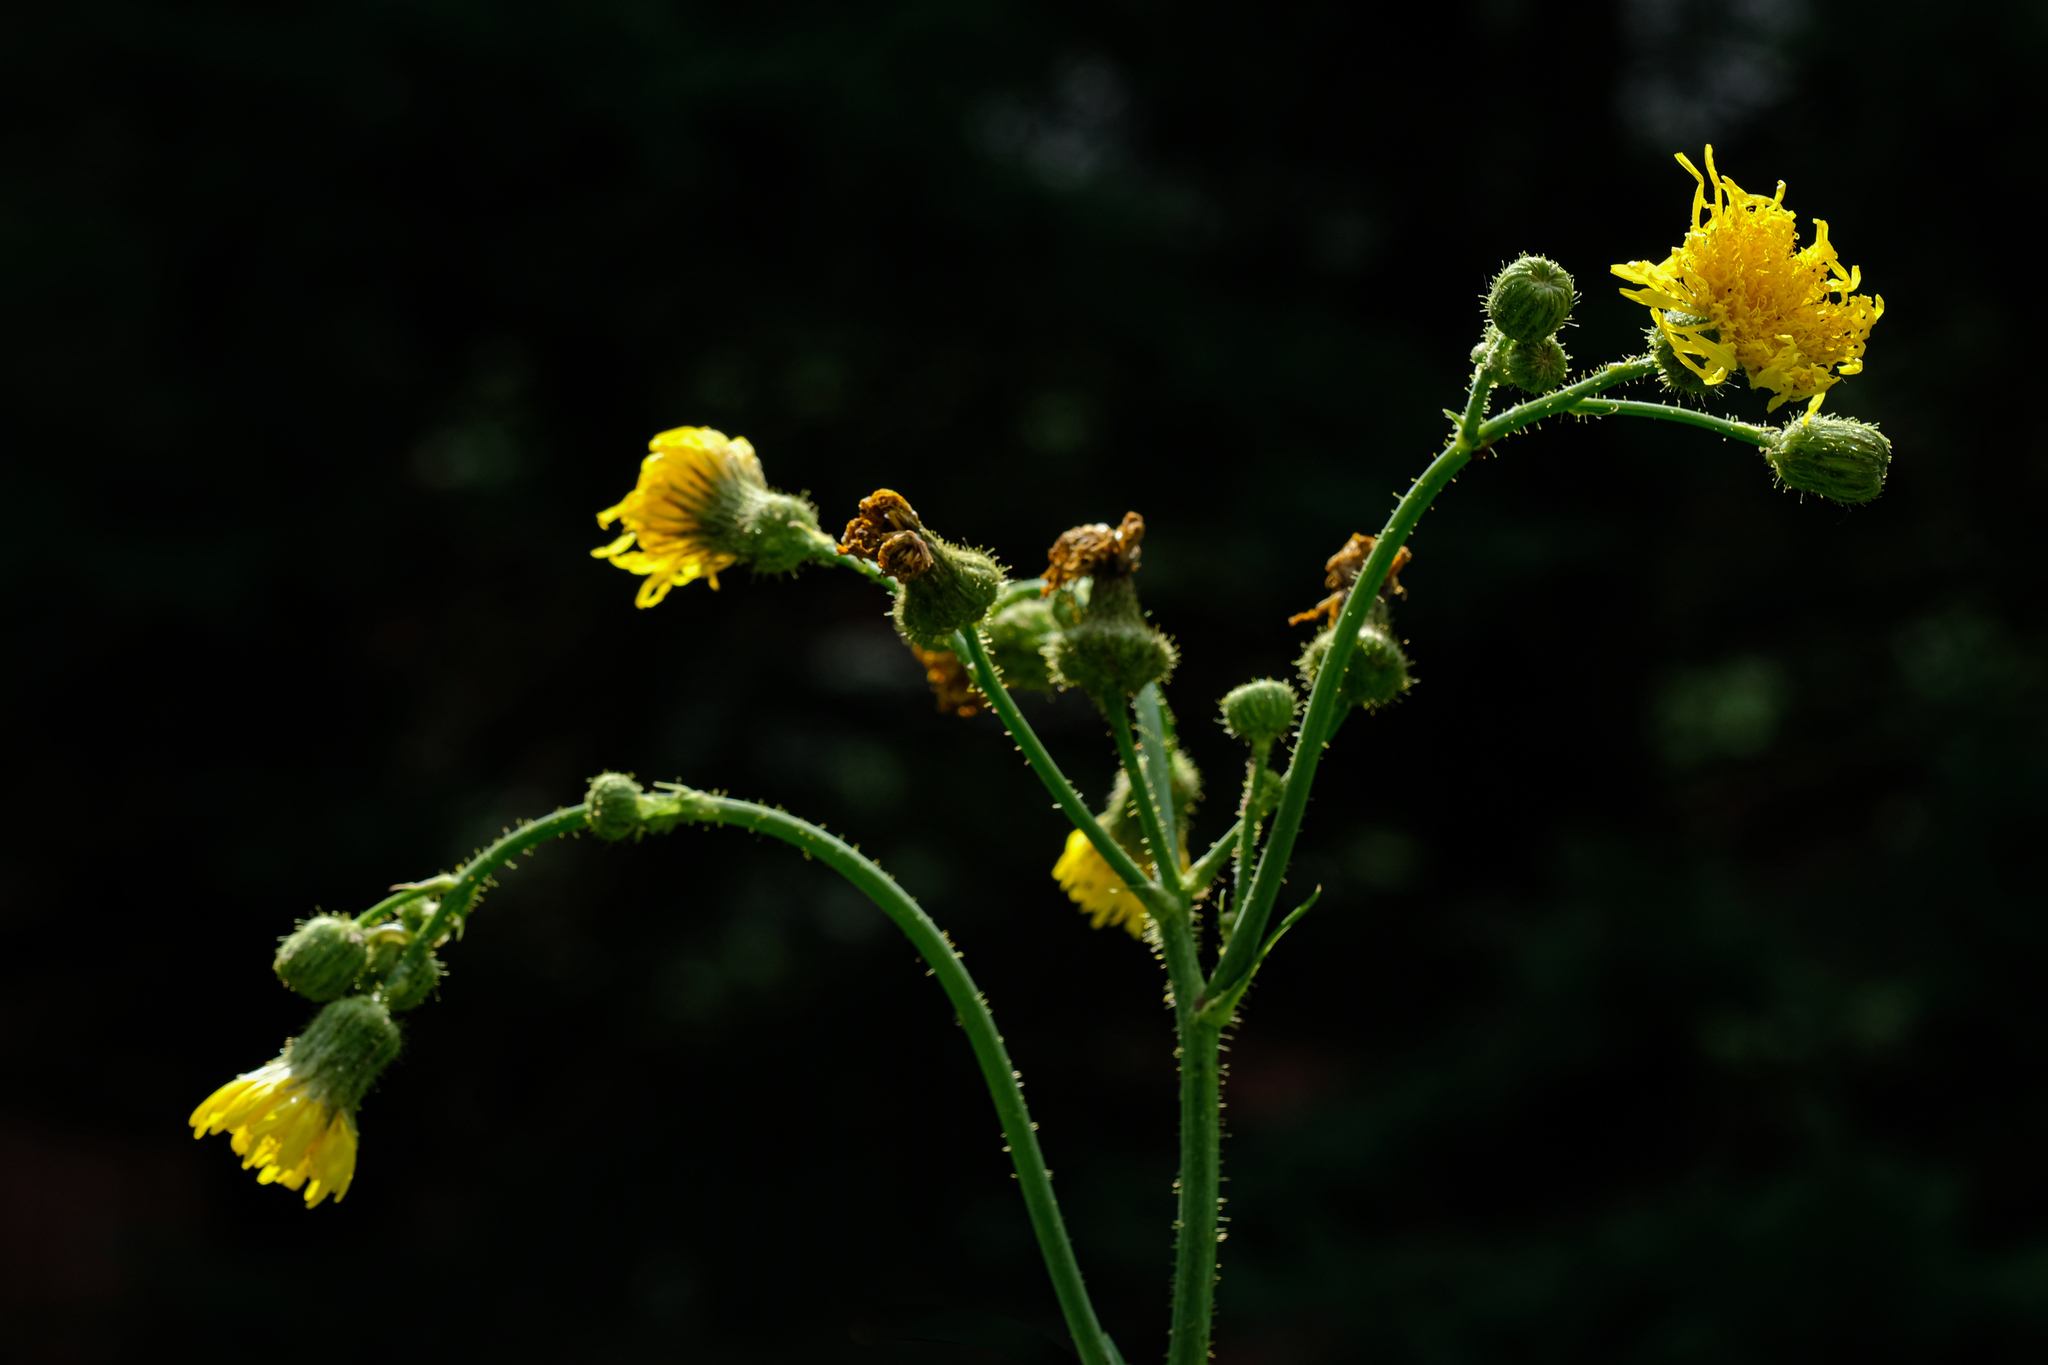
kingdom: Plantae
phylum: Tracheophyta
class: Magnoliopsida
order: Asterales
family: Asteraceae
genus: Sonchus
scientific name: Sonchus arvensis
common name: Perennial sow-thistle
